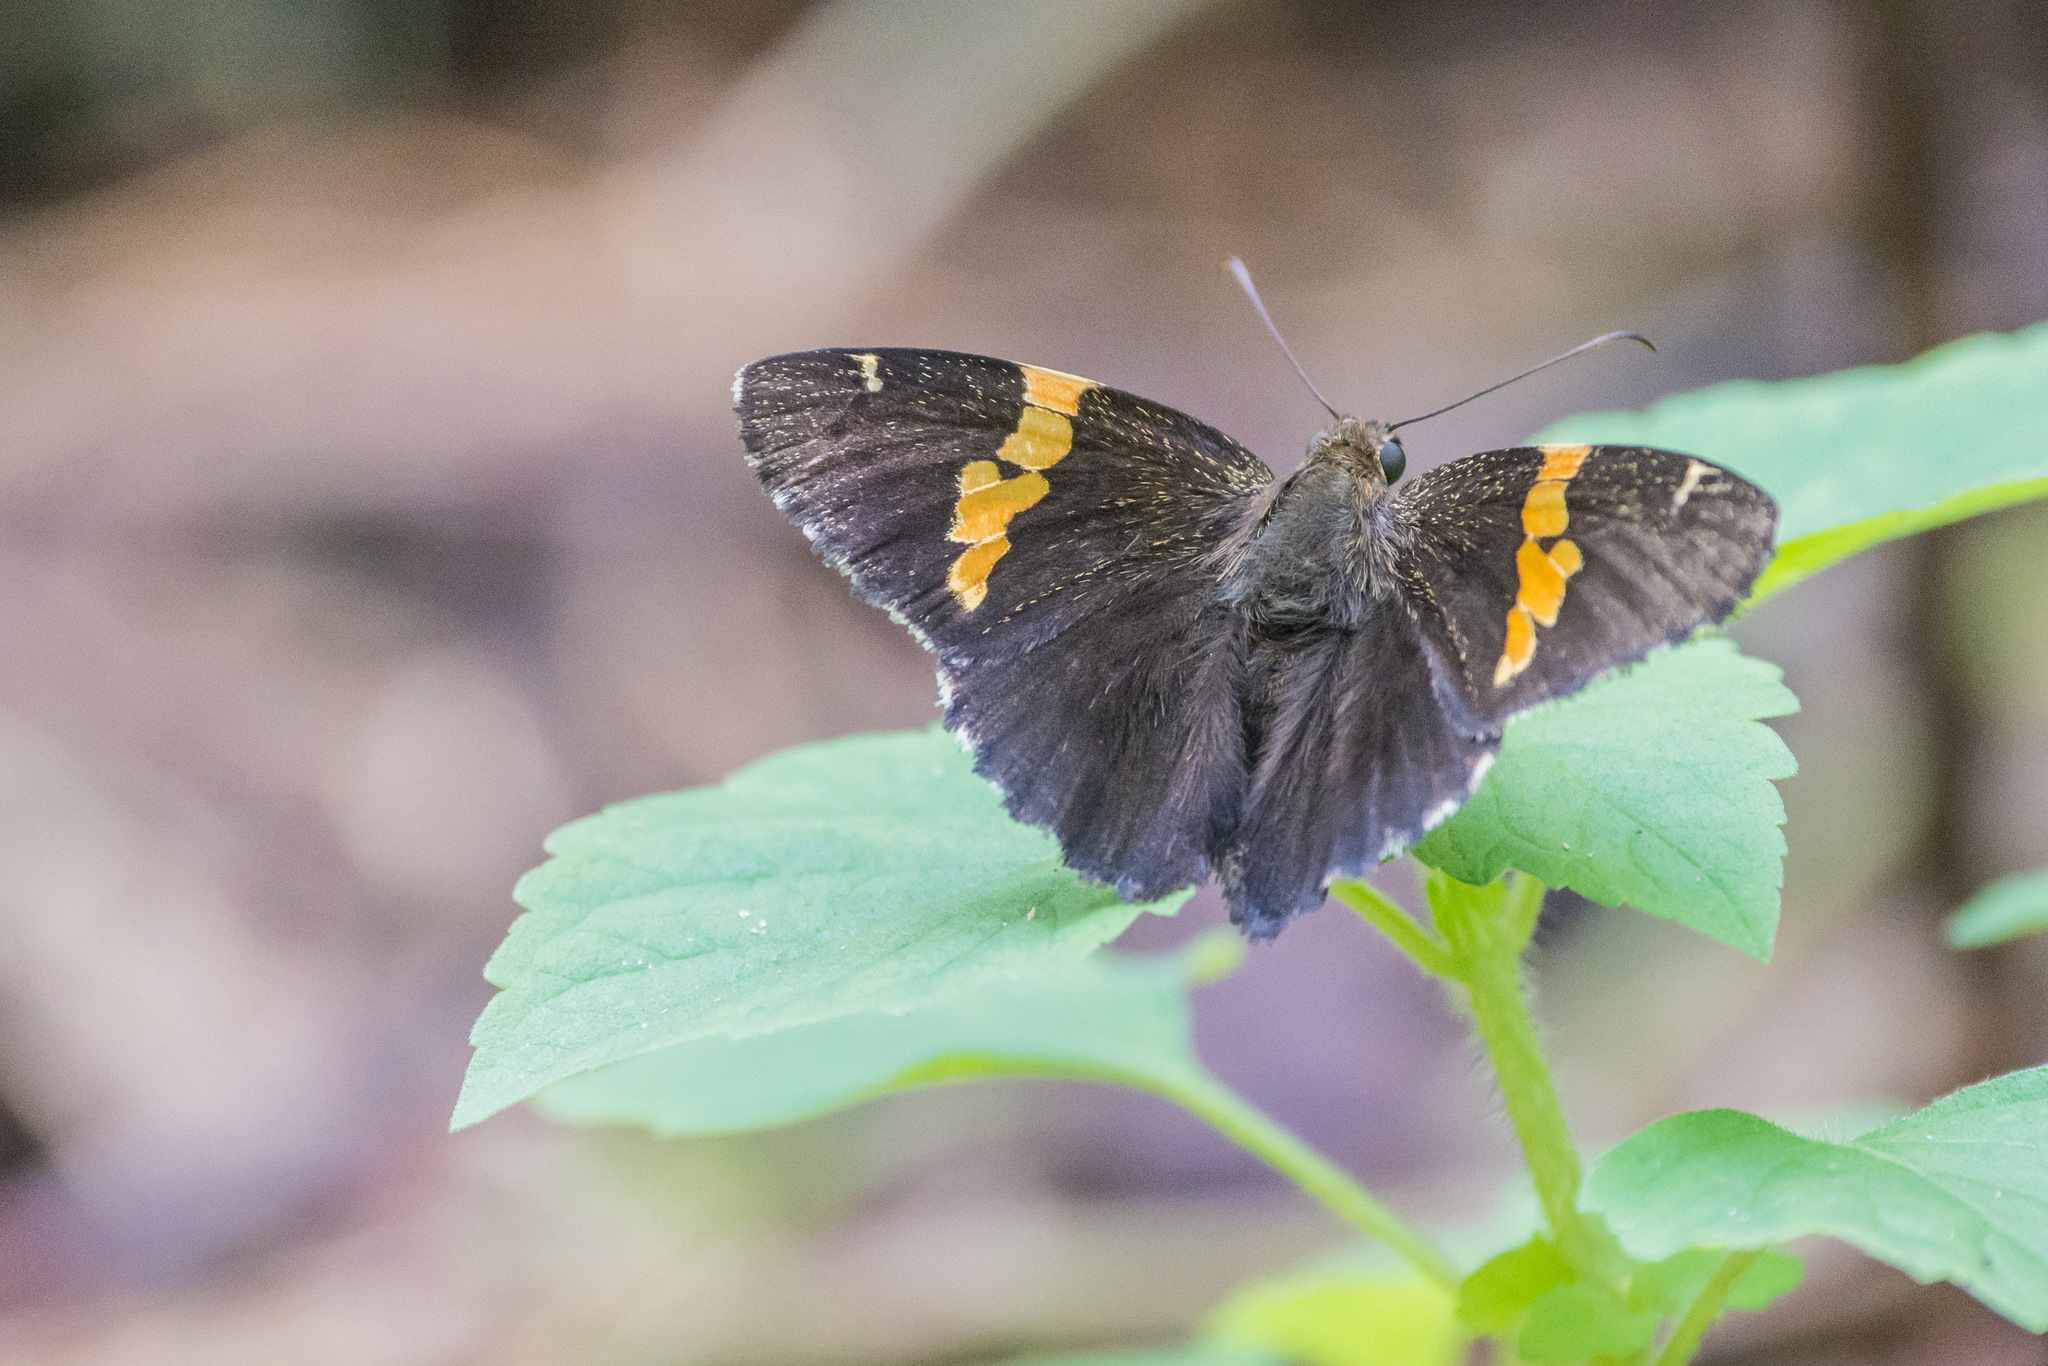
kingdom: Animalia
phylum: Arthropoda
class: Arachnida
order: Scorpiones
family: Bothriuridae
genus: Telegonus
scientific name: Telegonus cellus
